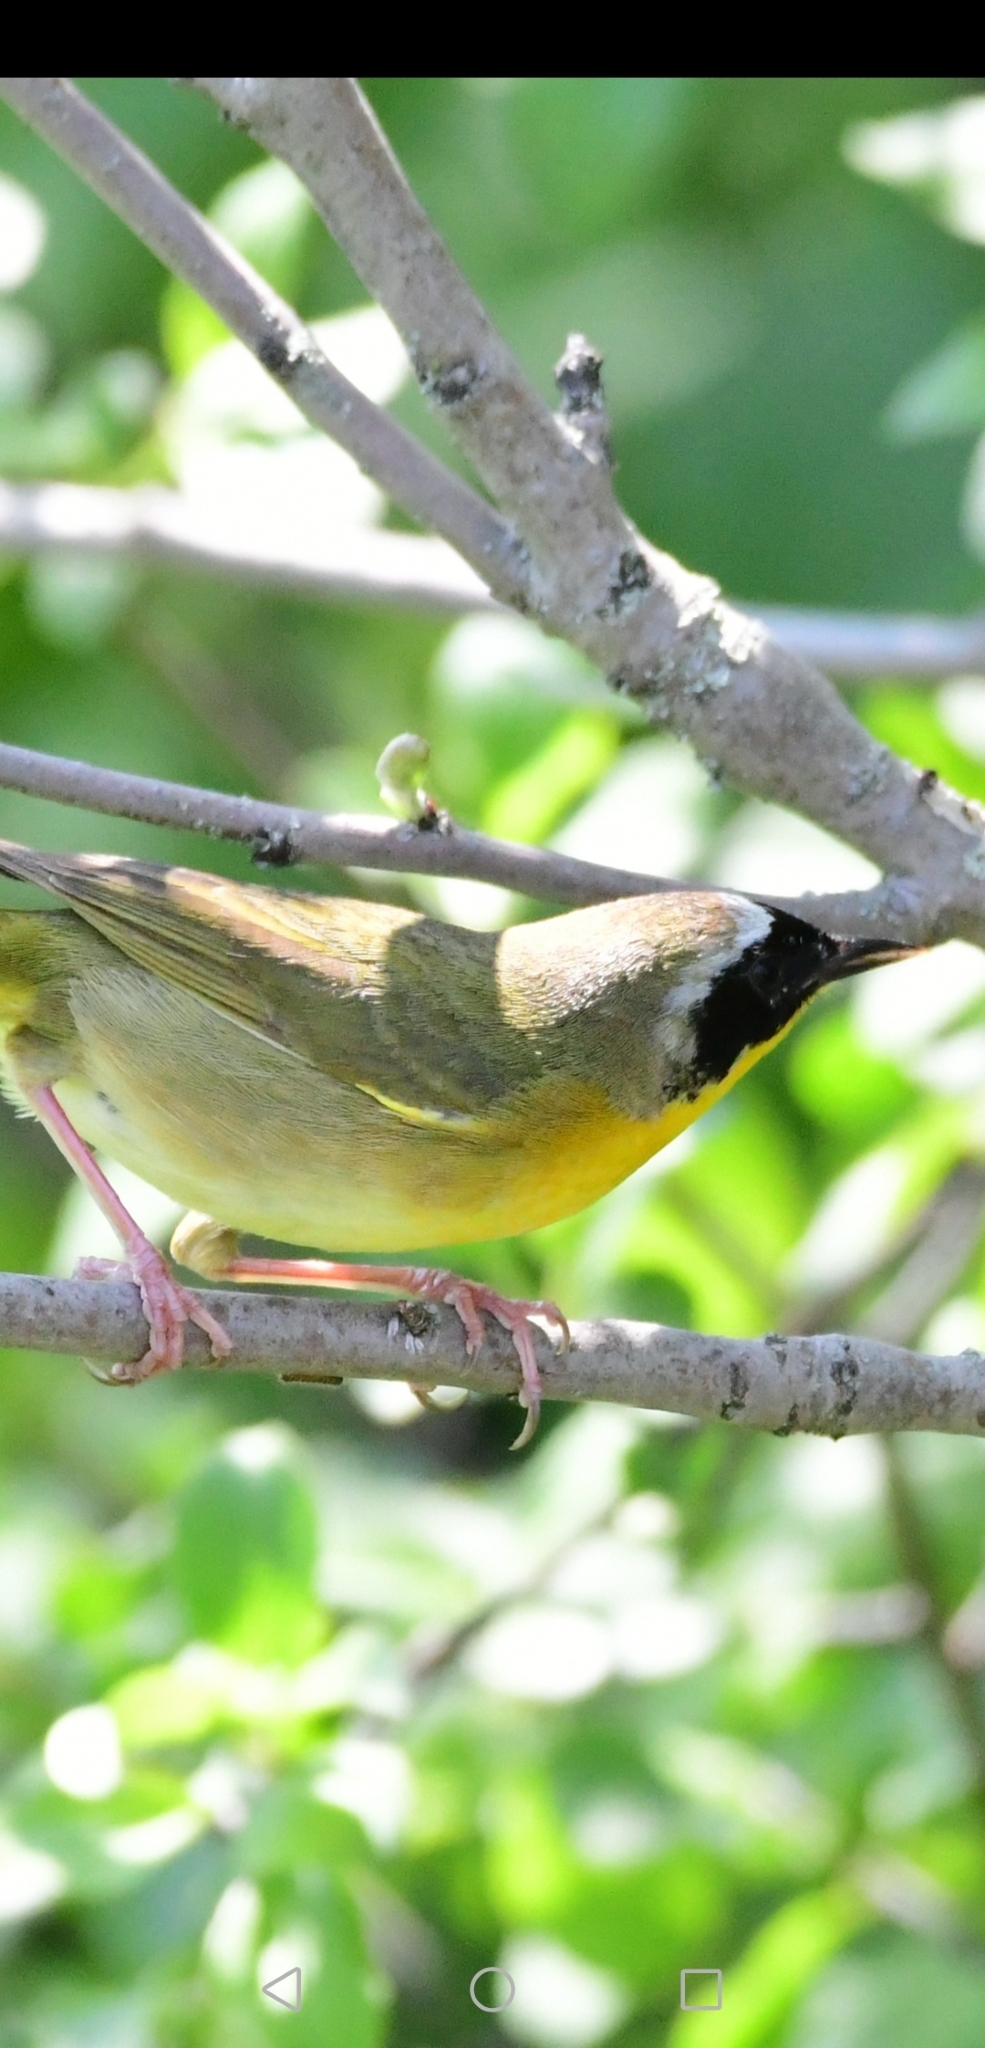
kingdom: Animalia
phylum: Chordata
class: Aves
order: Passeriformes
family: Parulidae
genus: Geothlypis
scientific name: Geothlypis trichas
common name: Common yellowthroat
